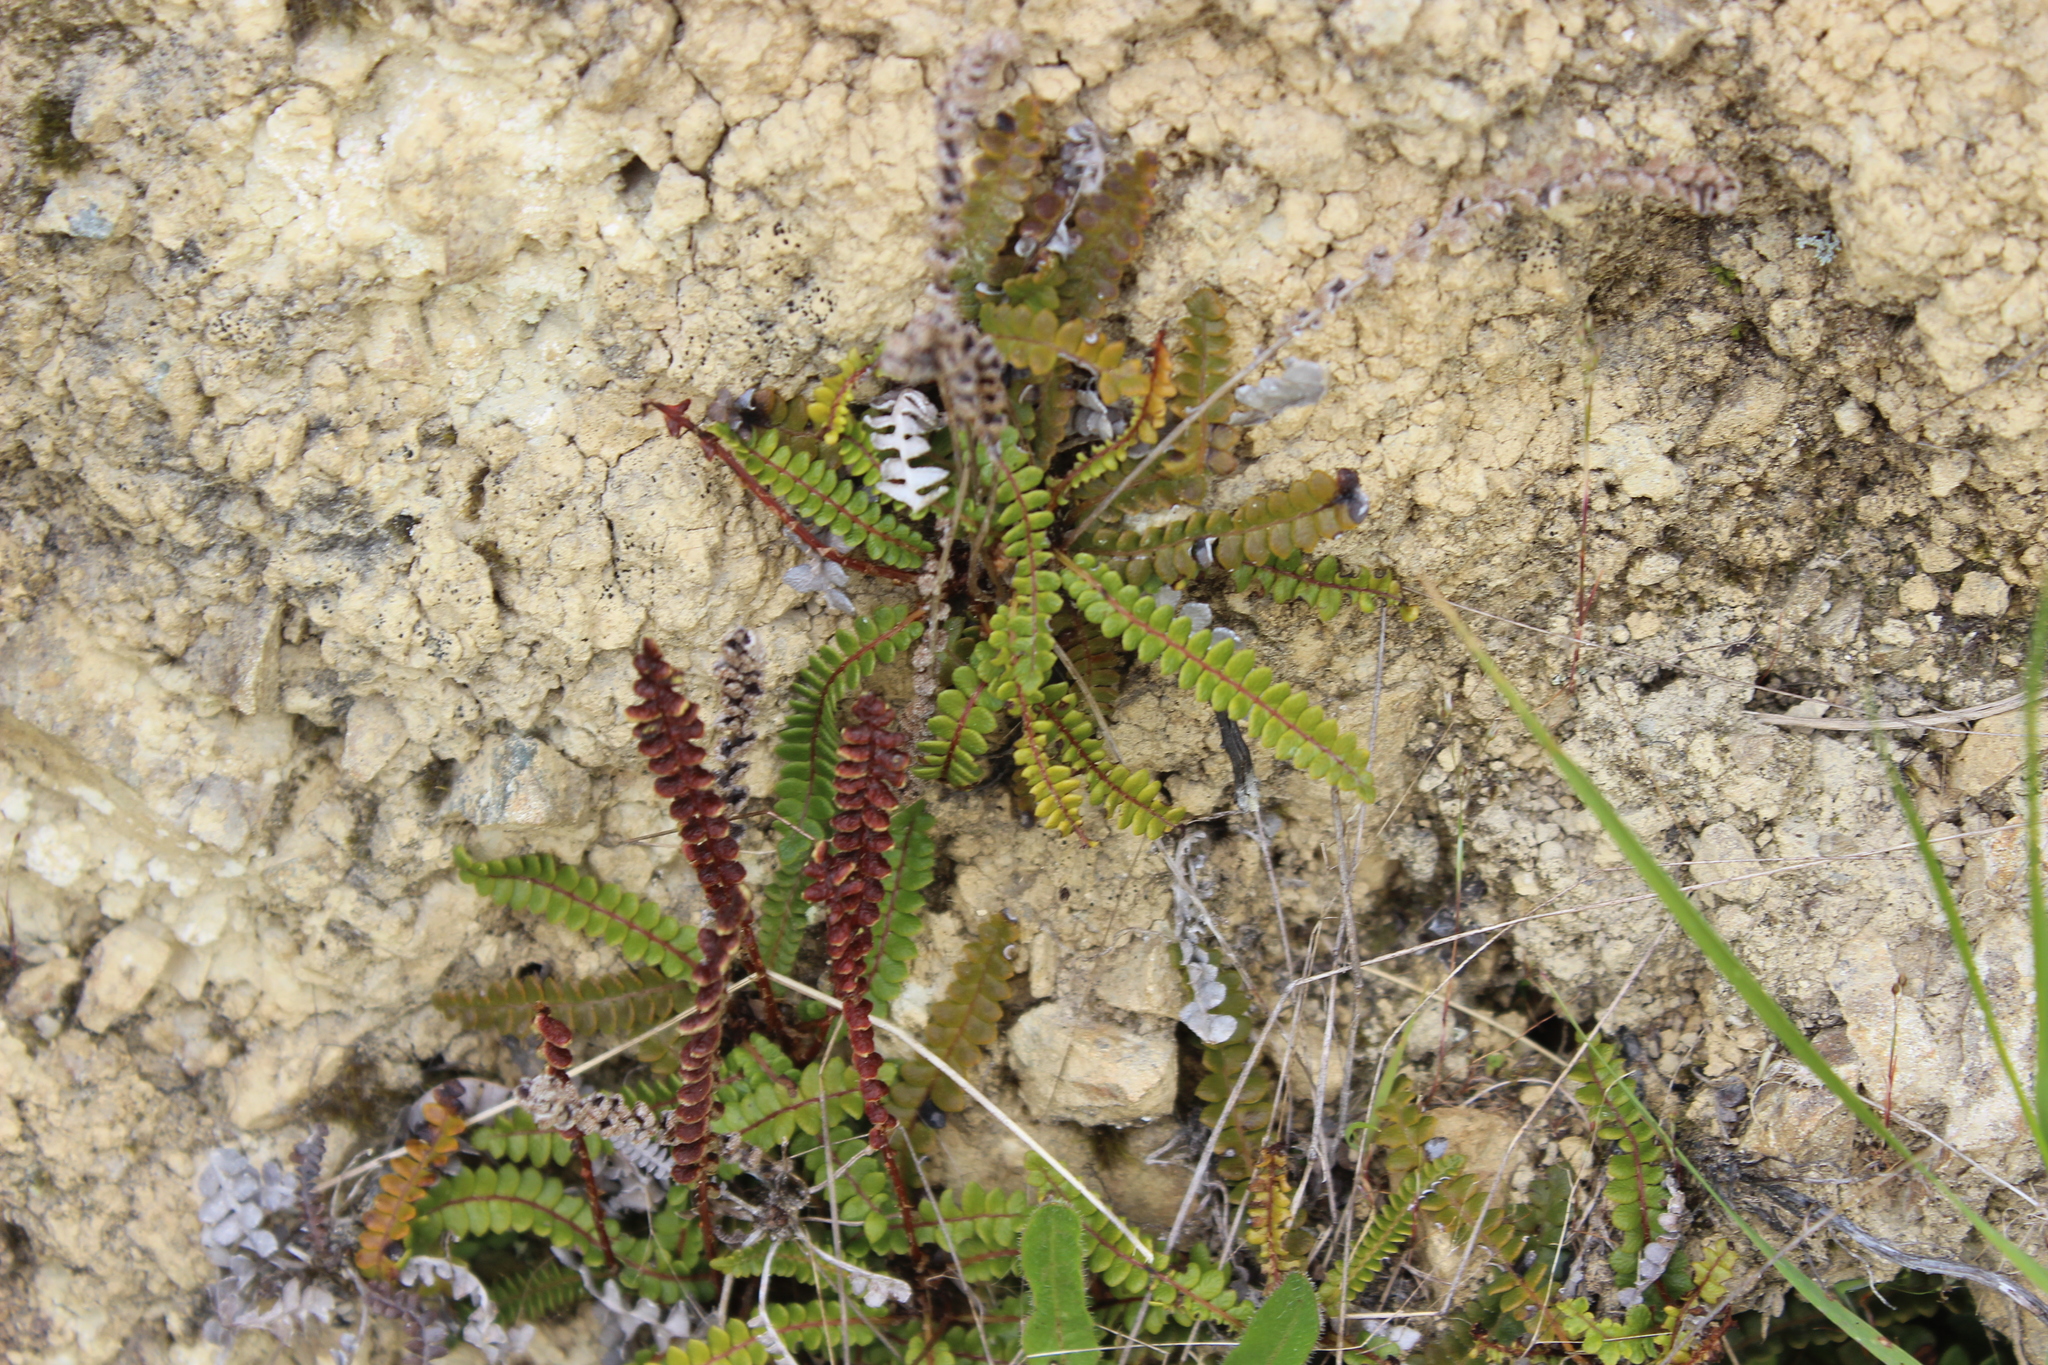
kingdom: Plantae
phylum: Tracheophyta
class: Polypodiopsida
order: Polypodiales
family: Blechnaceae
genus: Austroblechnum
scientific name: Austroblechnum penna-marina
